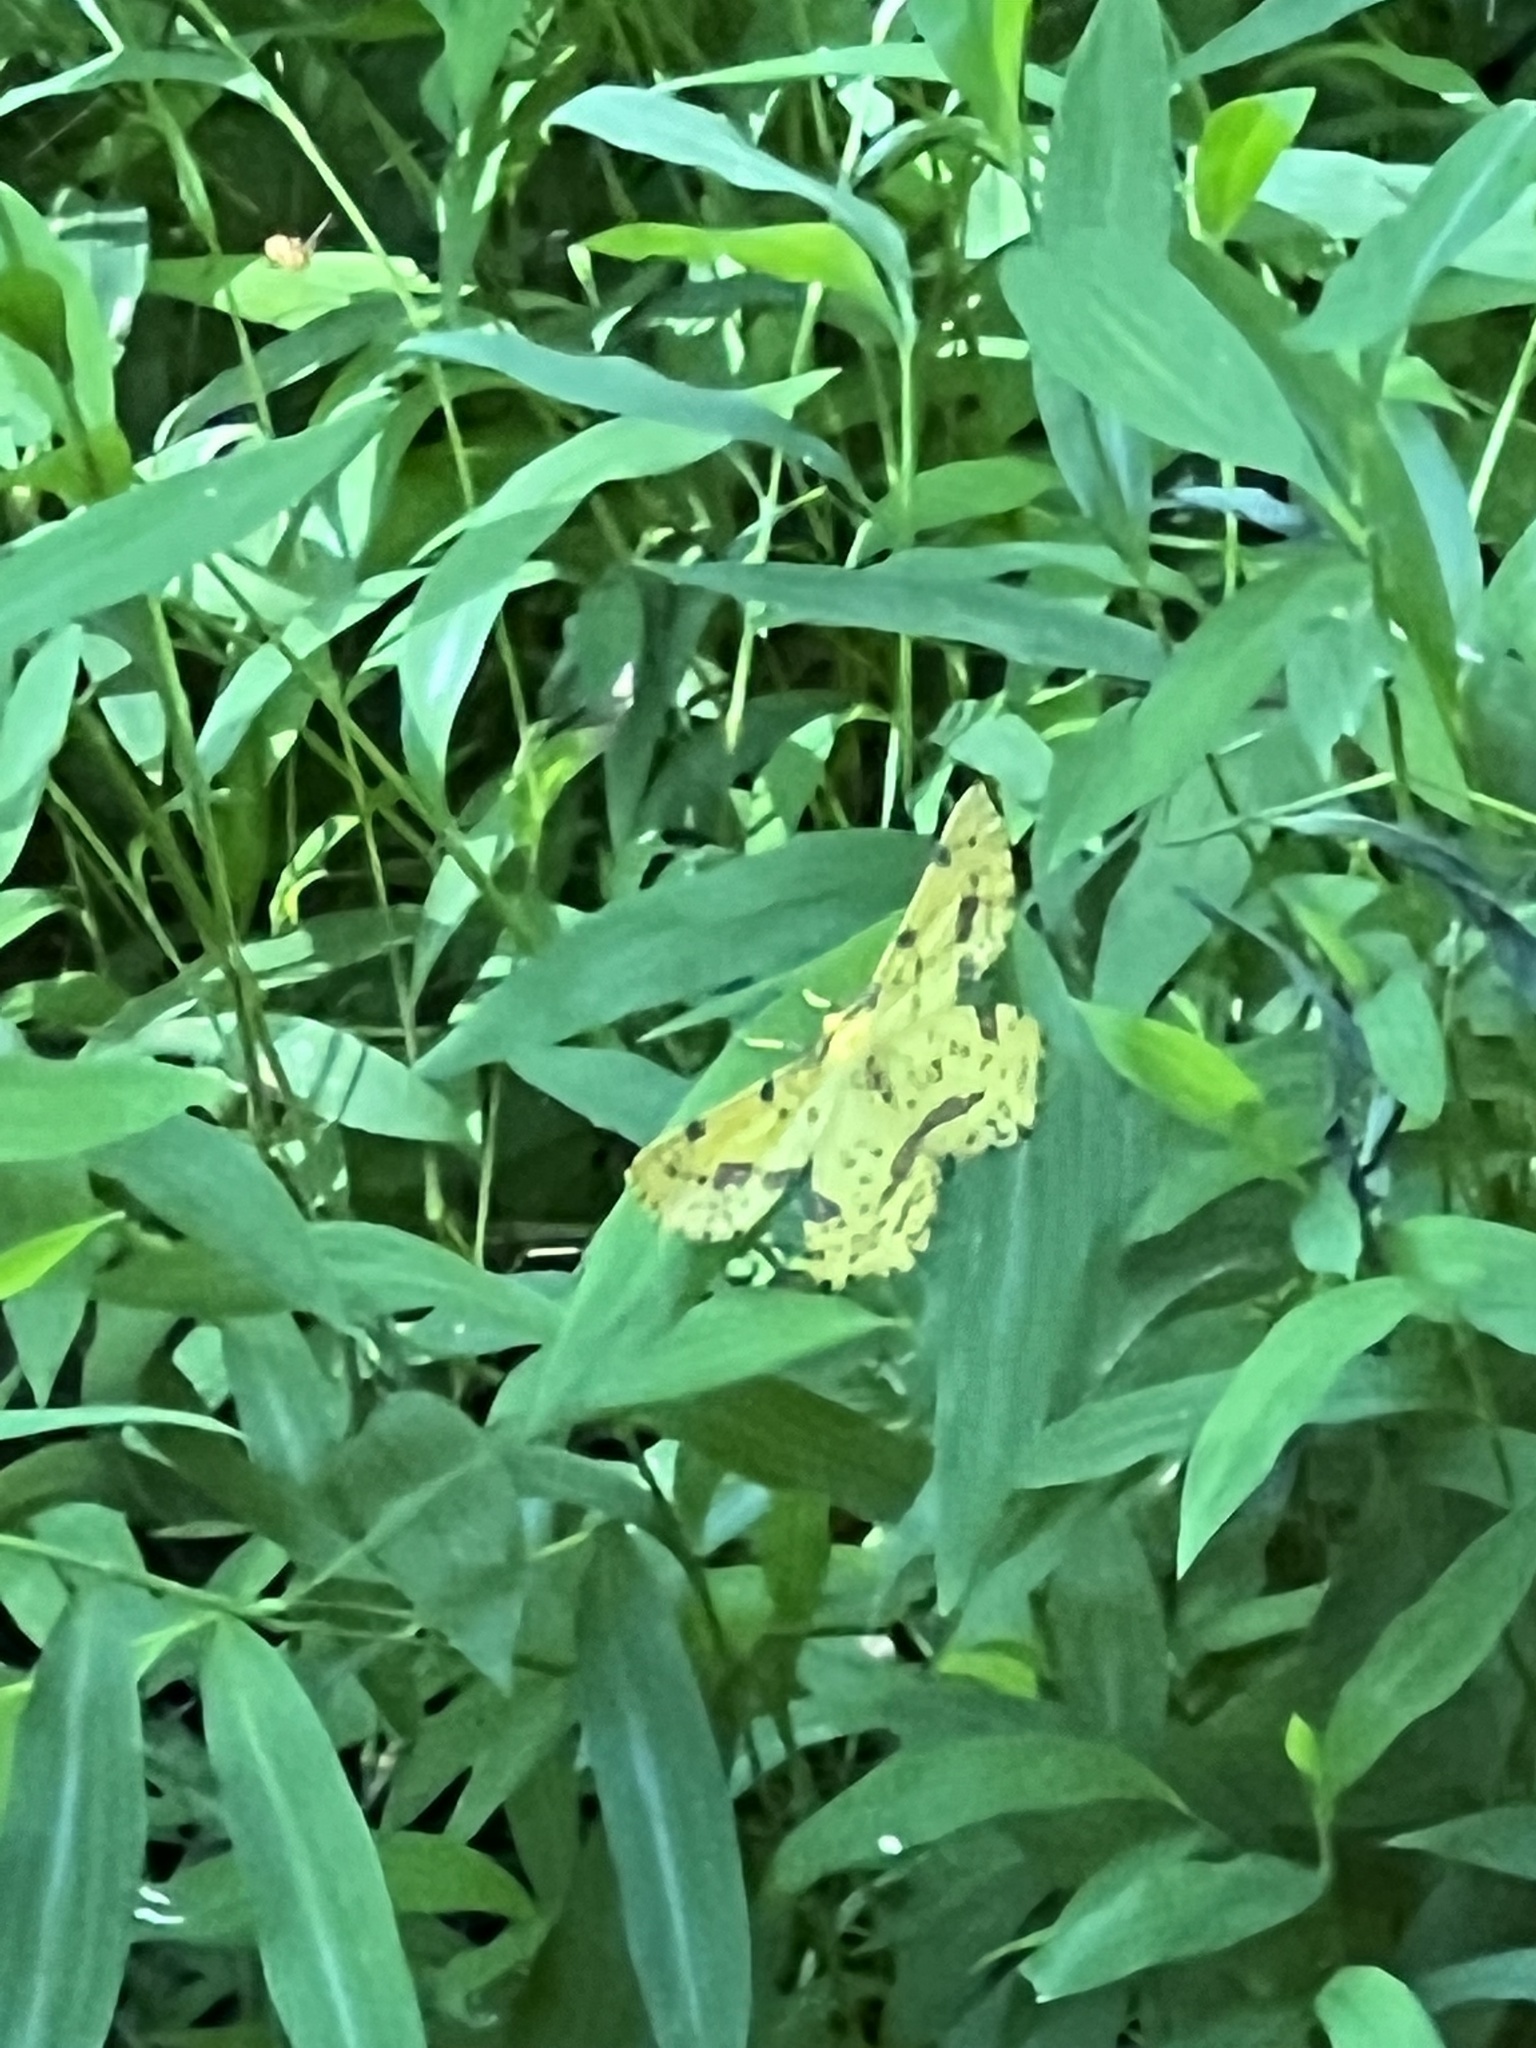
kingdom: Animalia
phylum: Arthropoda
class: Insecta
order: Lepidoptera
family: Geometridae
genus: Xanthotype
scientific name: Xanthotype
